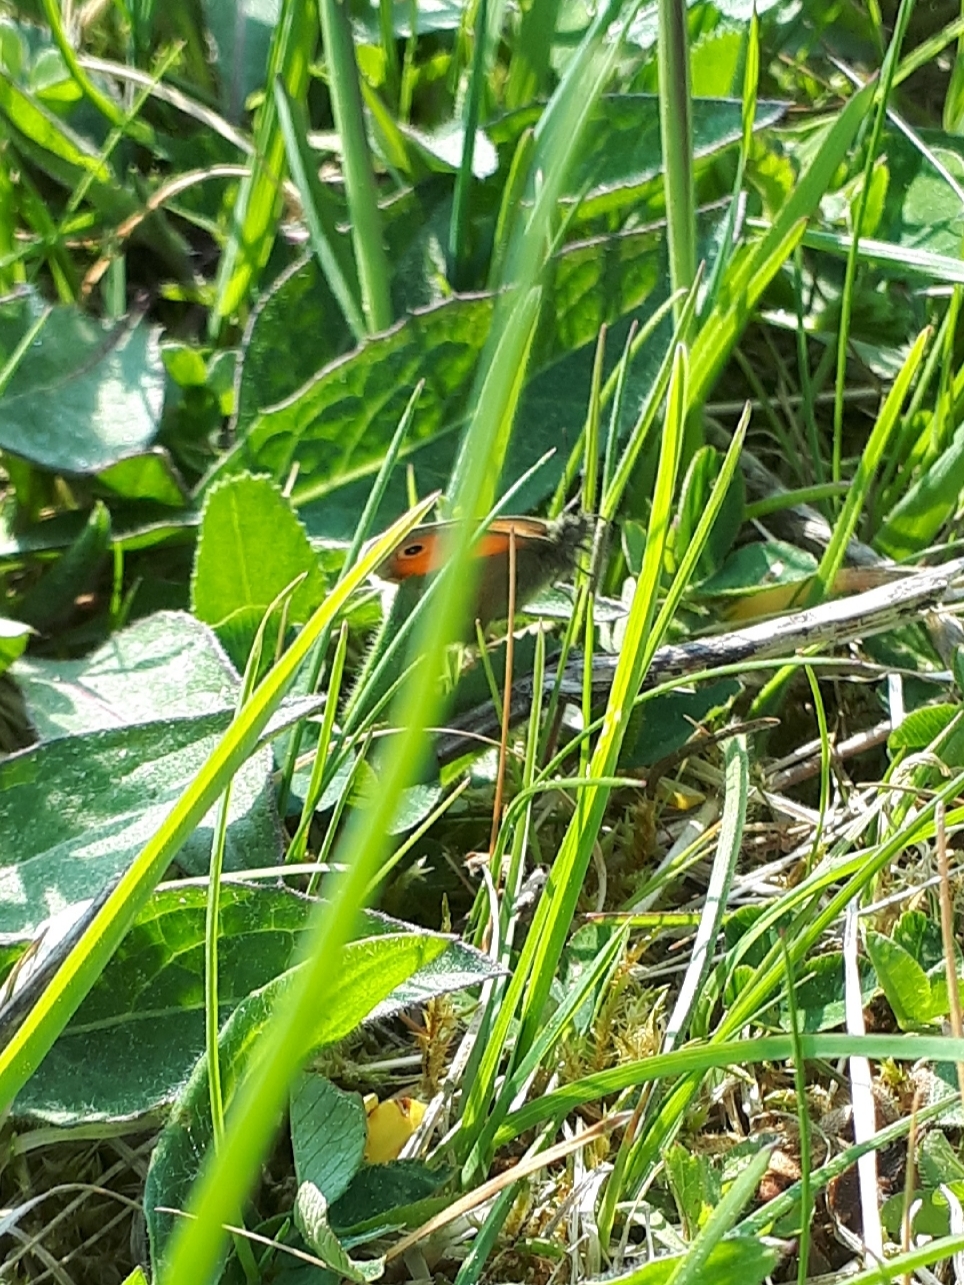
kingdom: Animalia
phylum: Arthropoda
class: Insecta
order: Lepidoptera
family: Nymphalidae
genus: Coenonympha
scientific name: Coenonympha pamphilus
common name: Small heath
